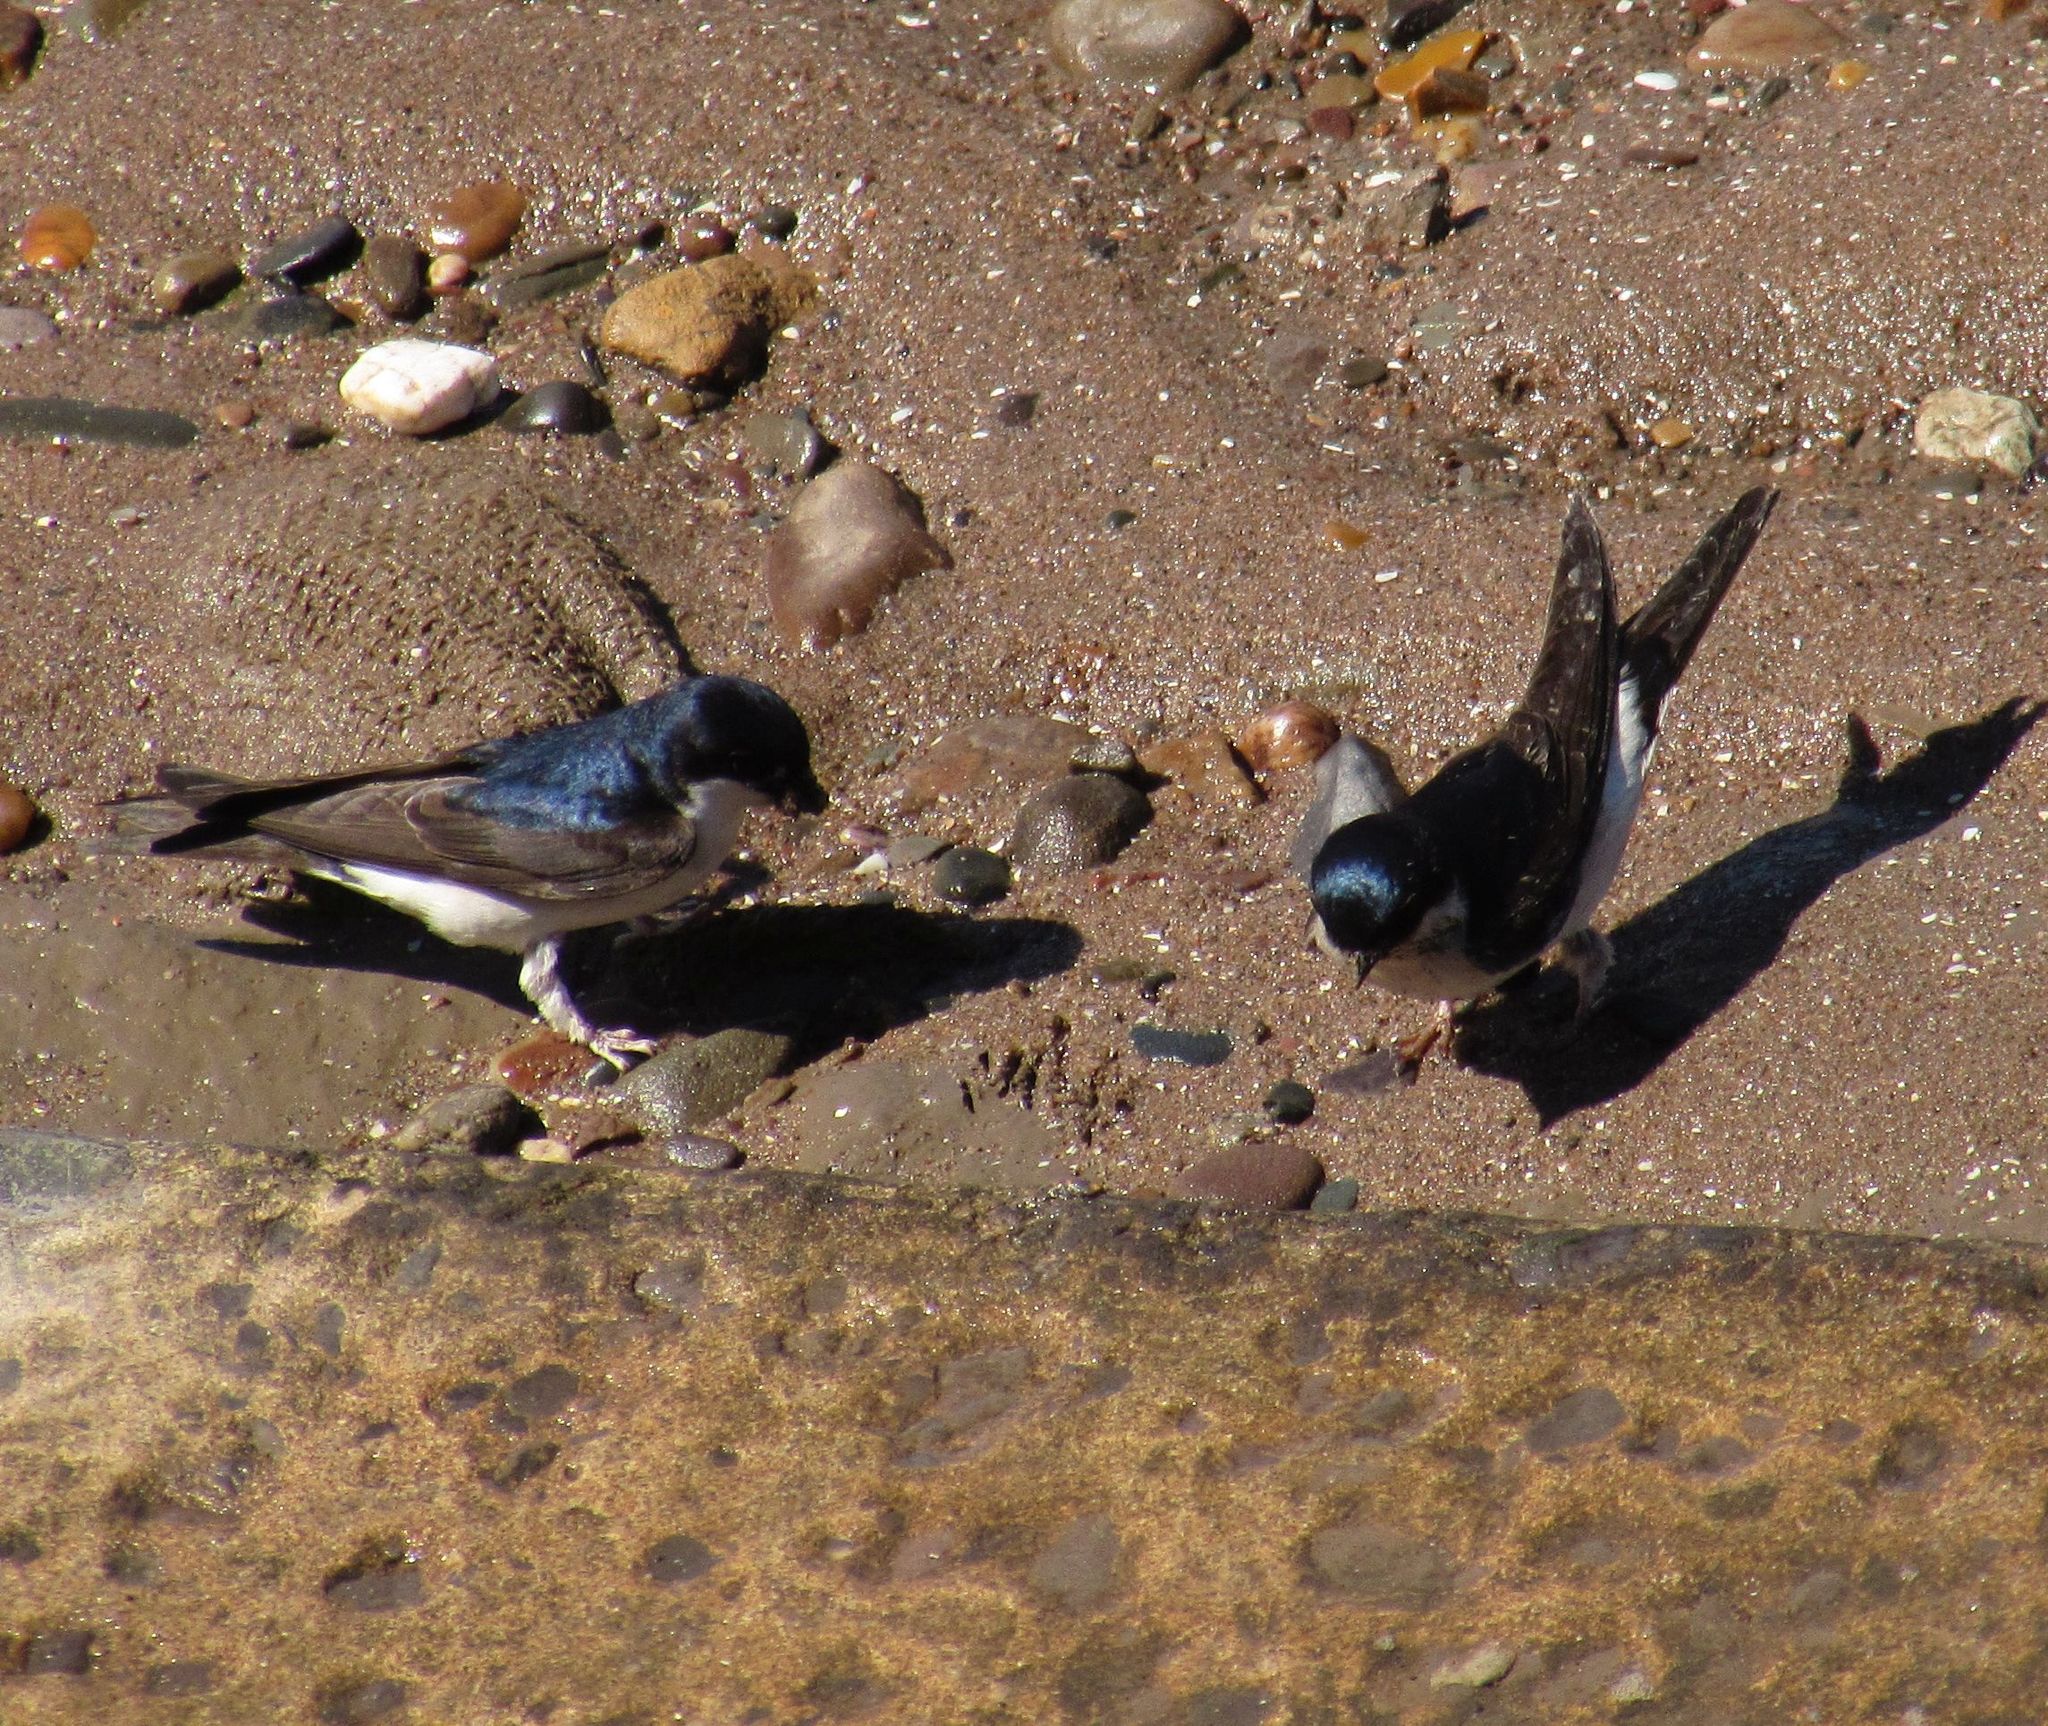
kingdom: Animalia
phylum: Chordata
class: Aves
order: Passeriformes
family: Hirundinidae
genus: Delichon
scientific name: Delichon urbicum
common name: Common house martin
